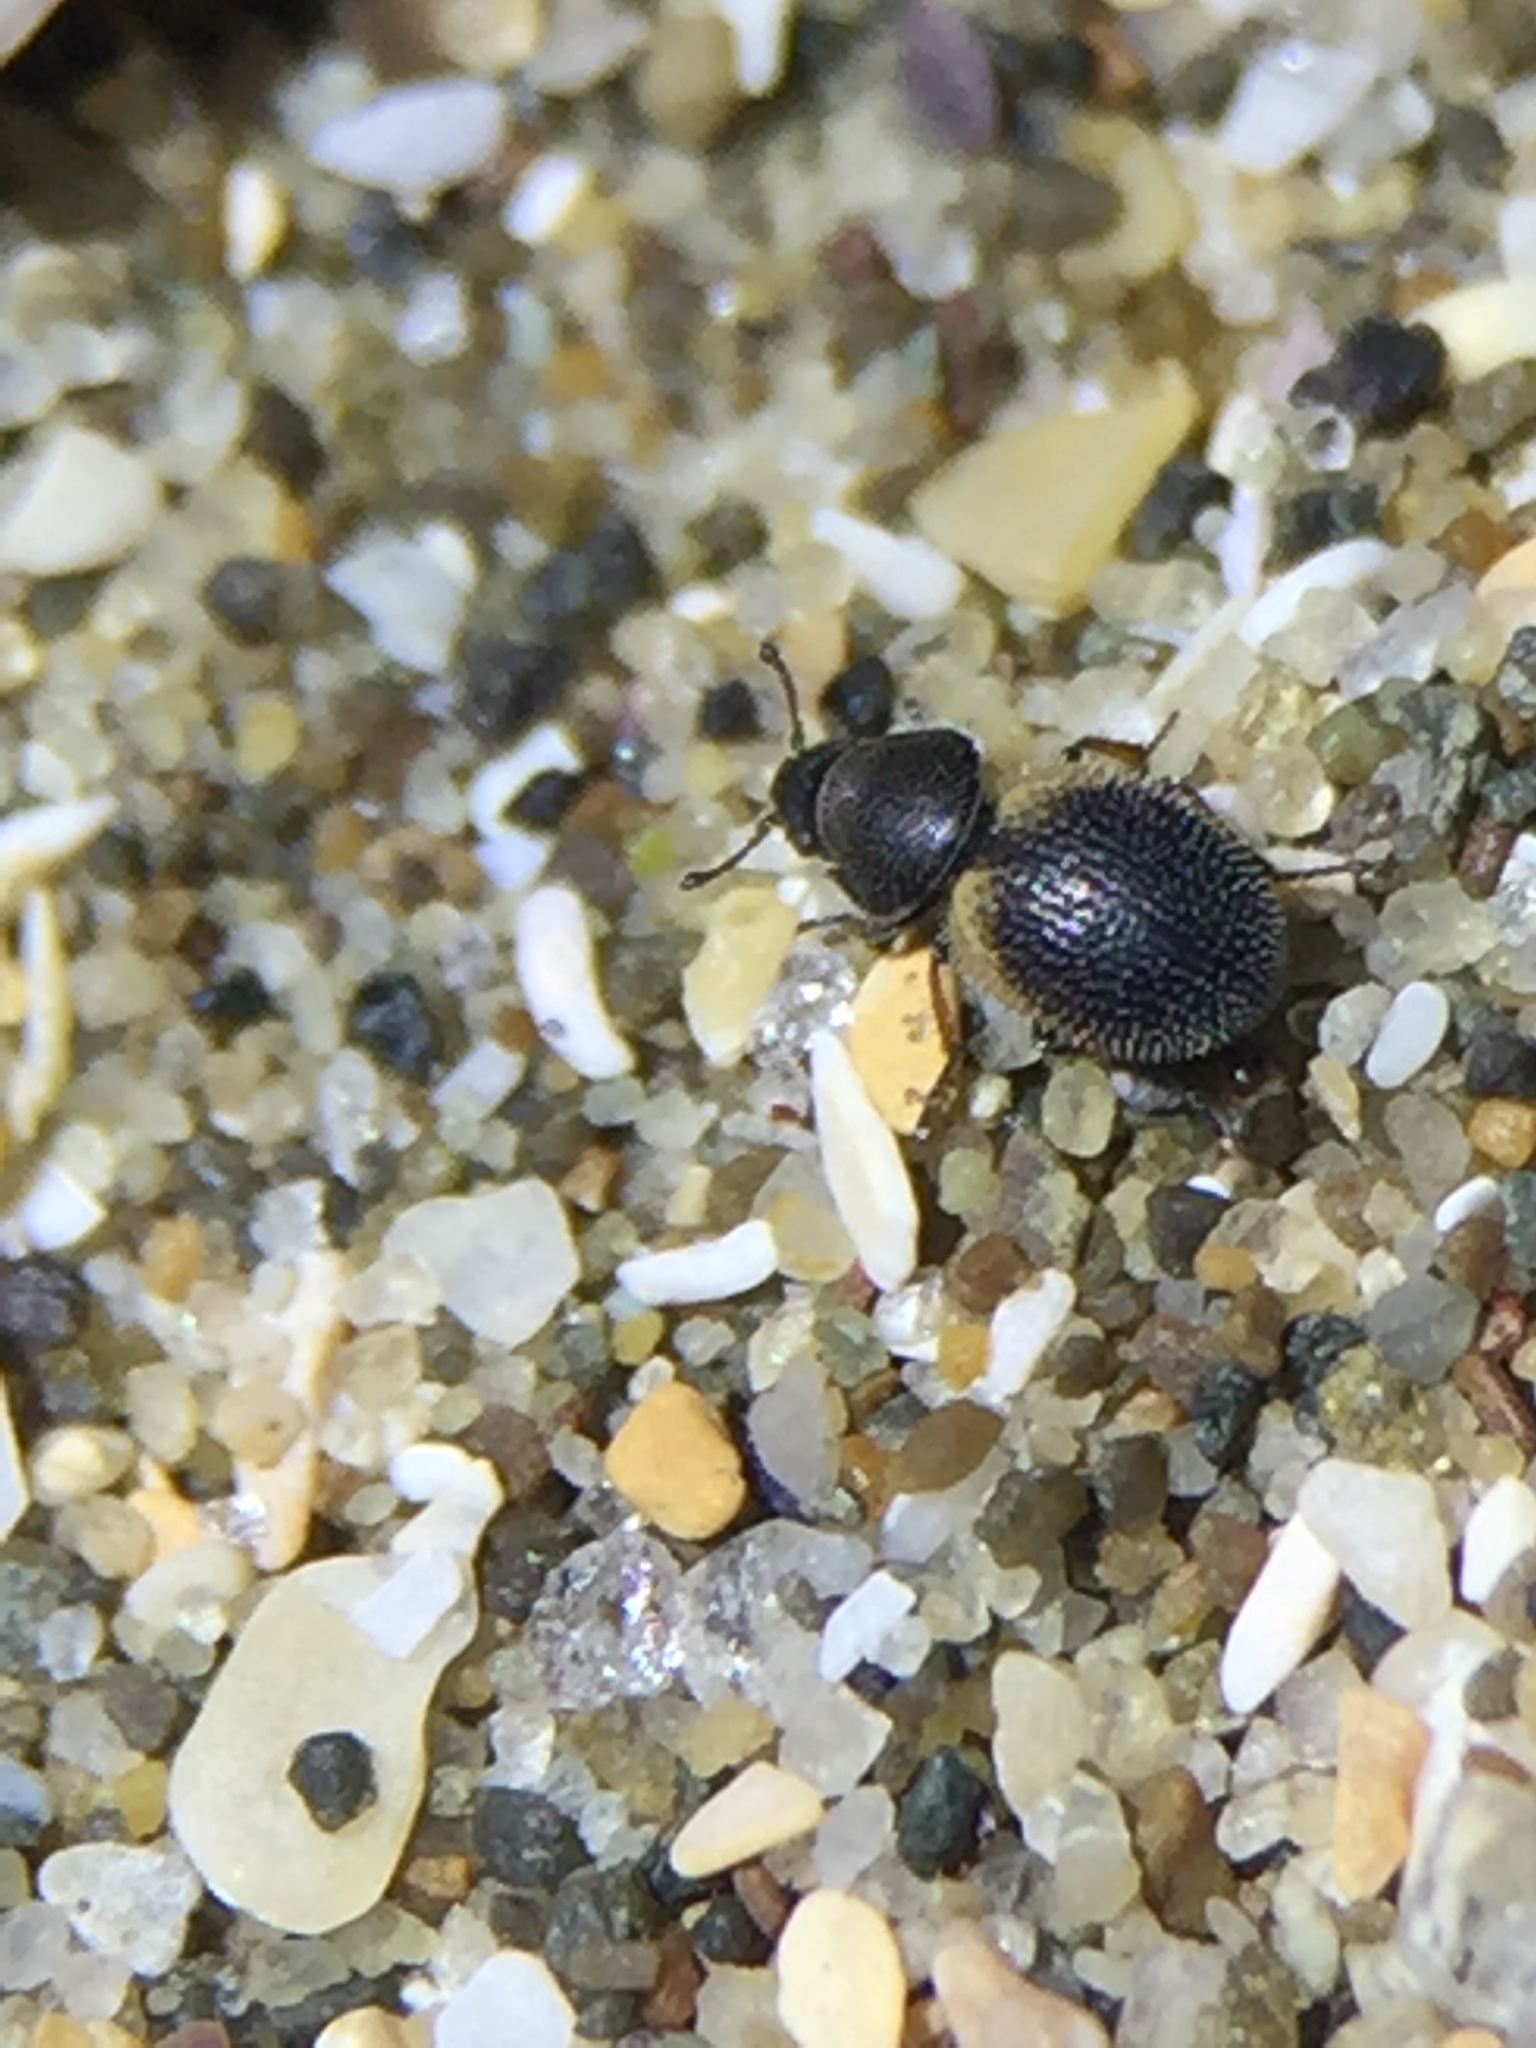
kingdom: Animalia
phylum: Arthropoda
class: Insecta
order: Coleoptera
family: Phycosecidae
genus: Phycosecis
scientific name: Phycosecis
